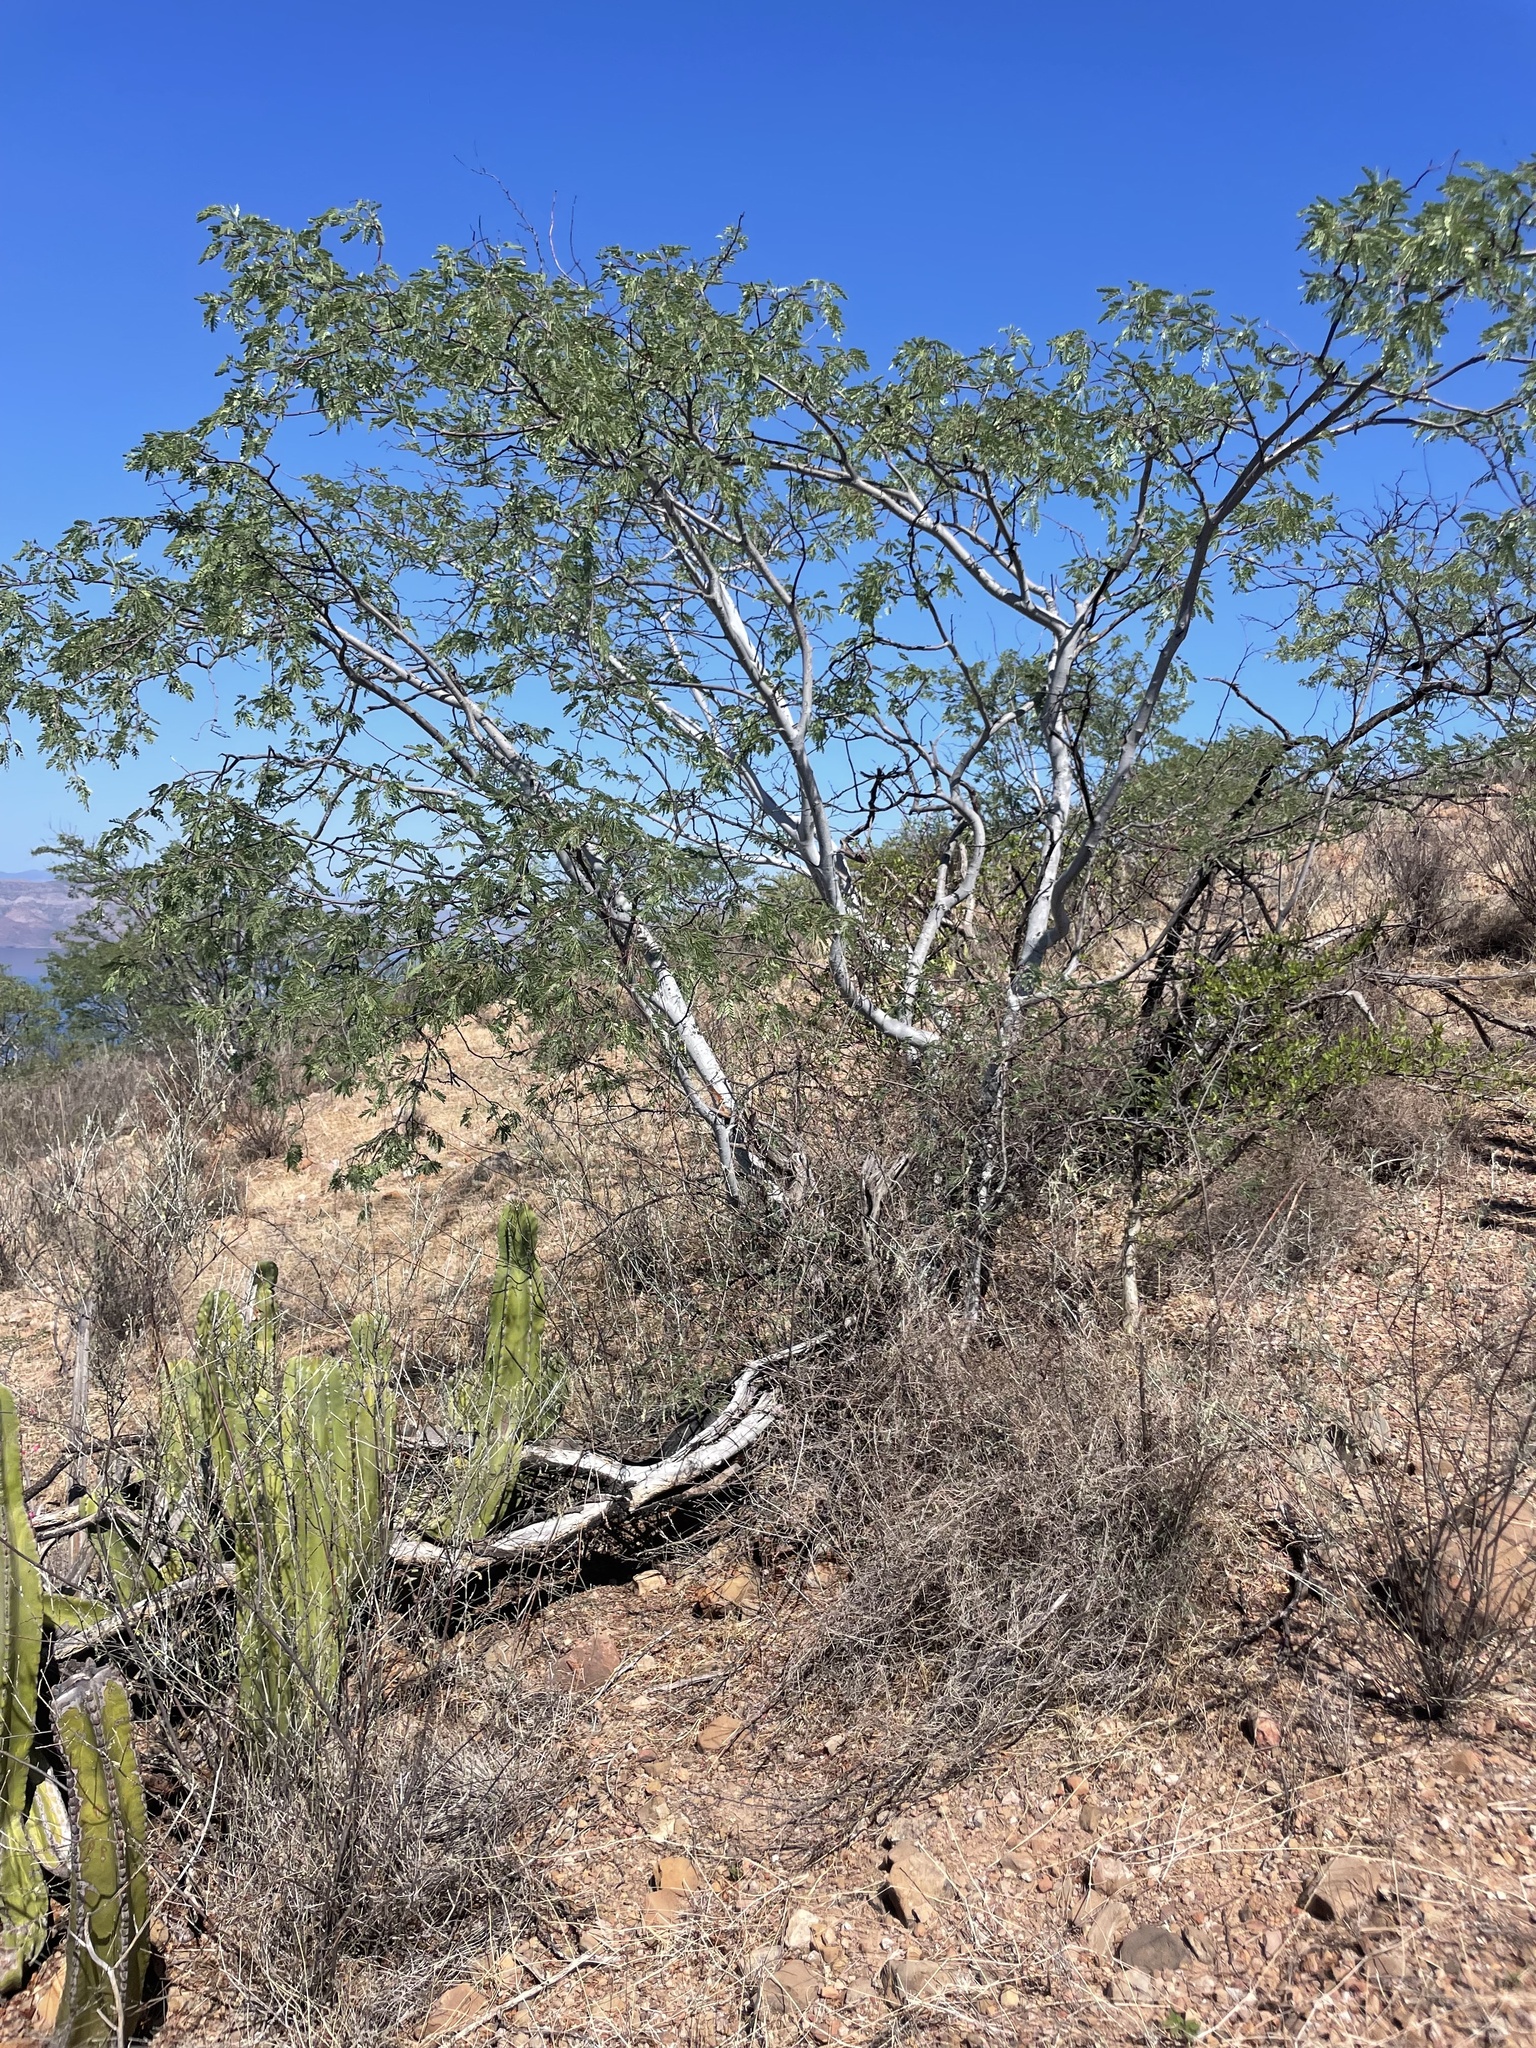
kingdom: Plantae
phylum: Tracheophyta
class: Magnoliopsida
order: Fabales
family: Fabaceae
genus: Lysiloma
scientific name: Lysiloma candidum
